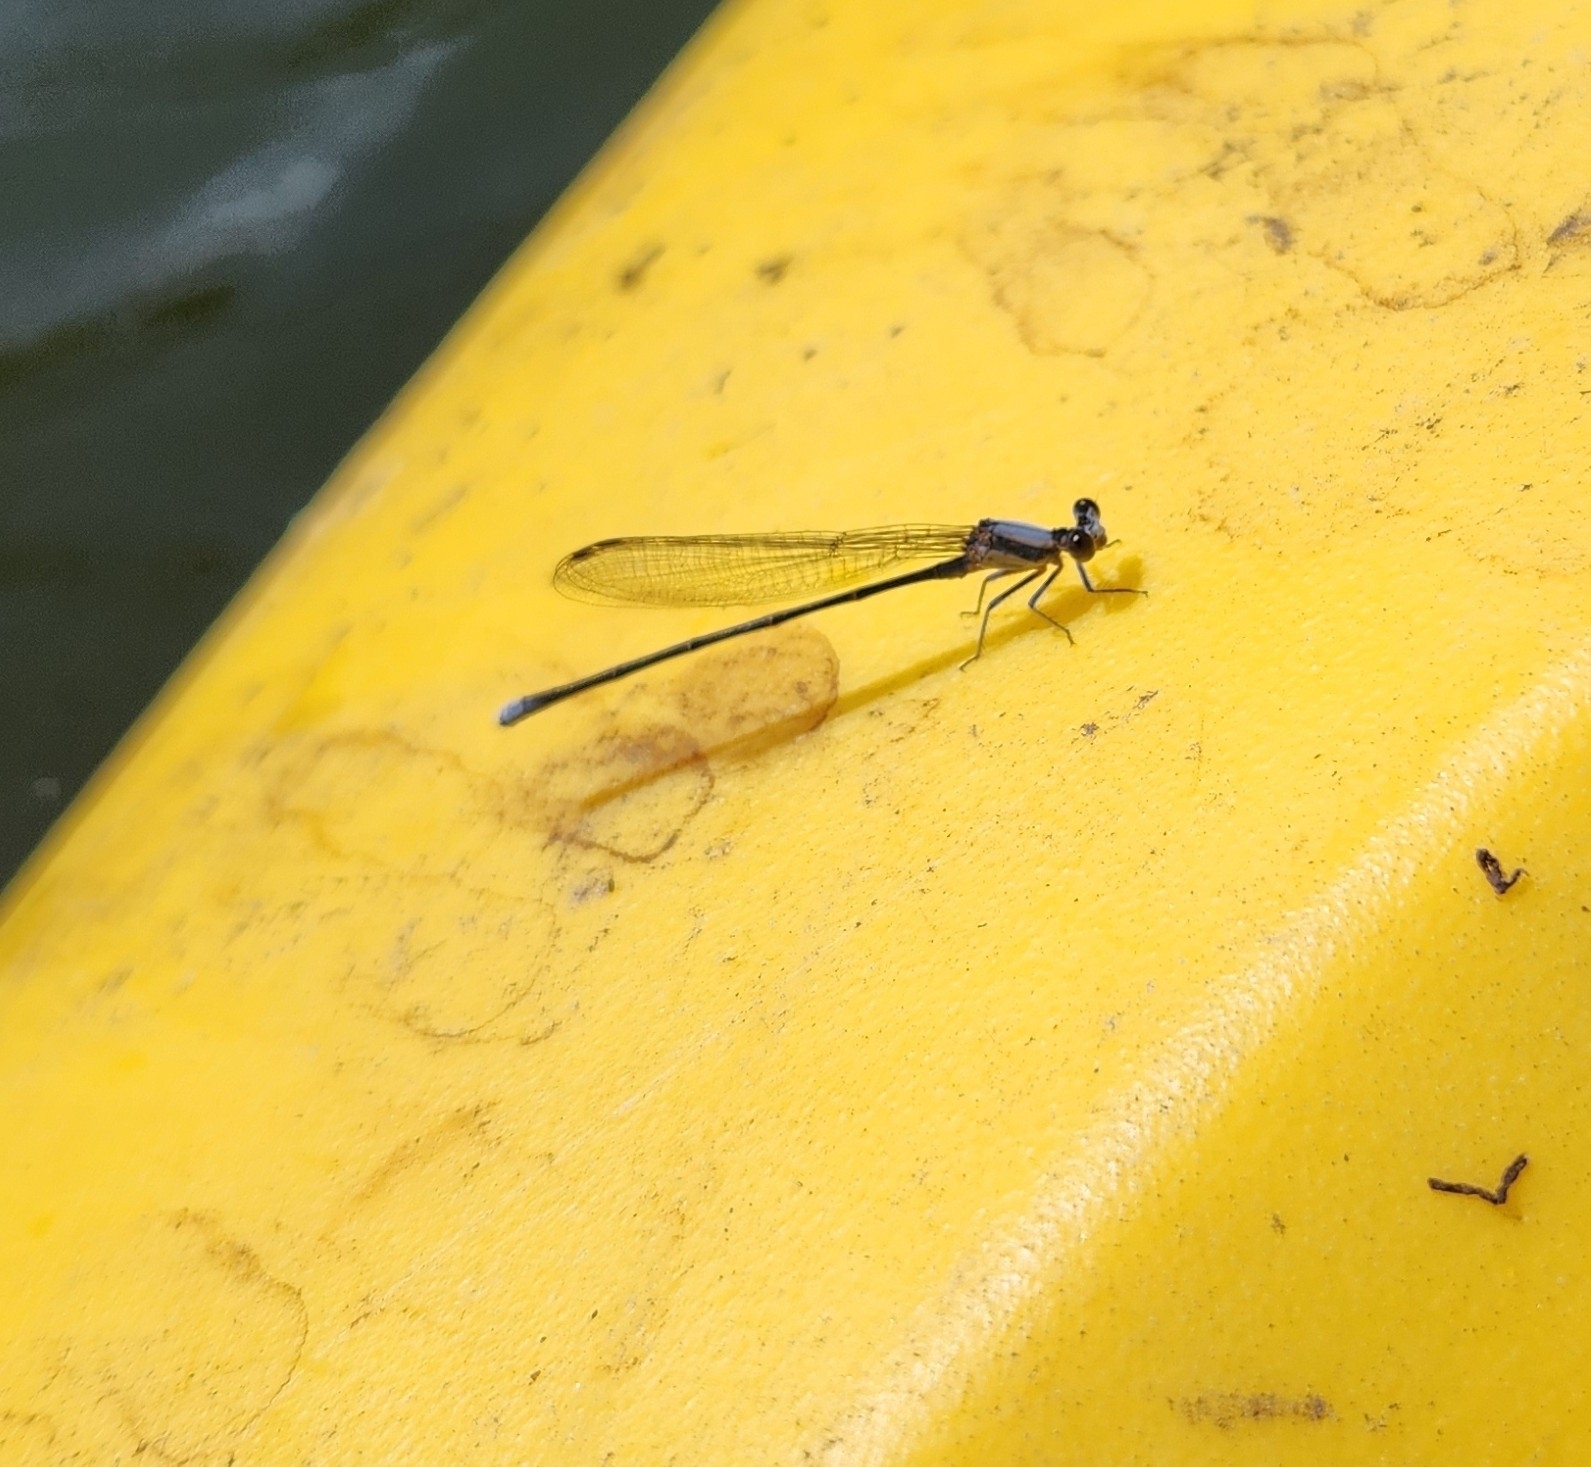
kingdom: Animalia
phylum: Arthropoda
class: Insecta
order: Odonata
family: Coenagrionidae
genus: Argia
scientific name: Argia moesta
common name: Powdered dancer
